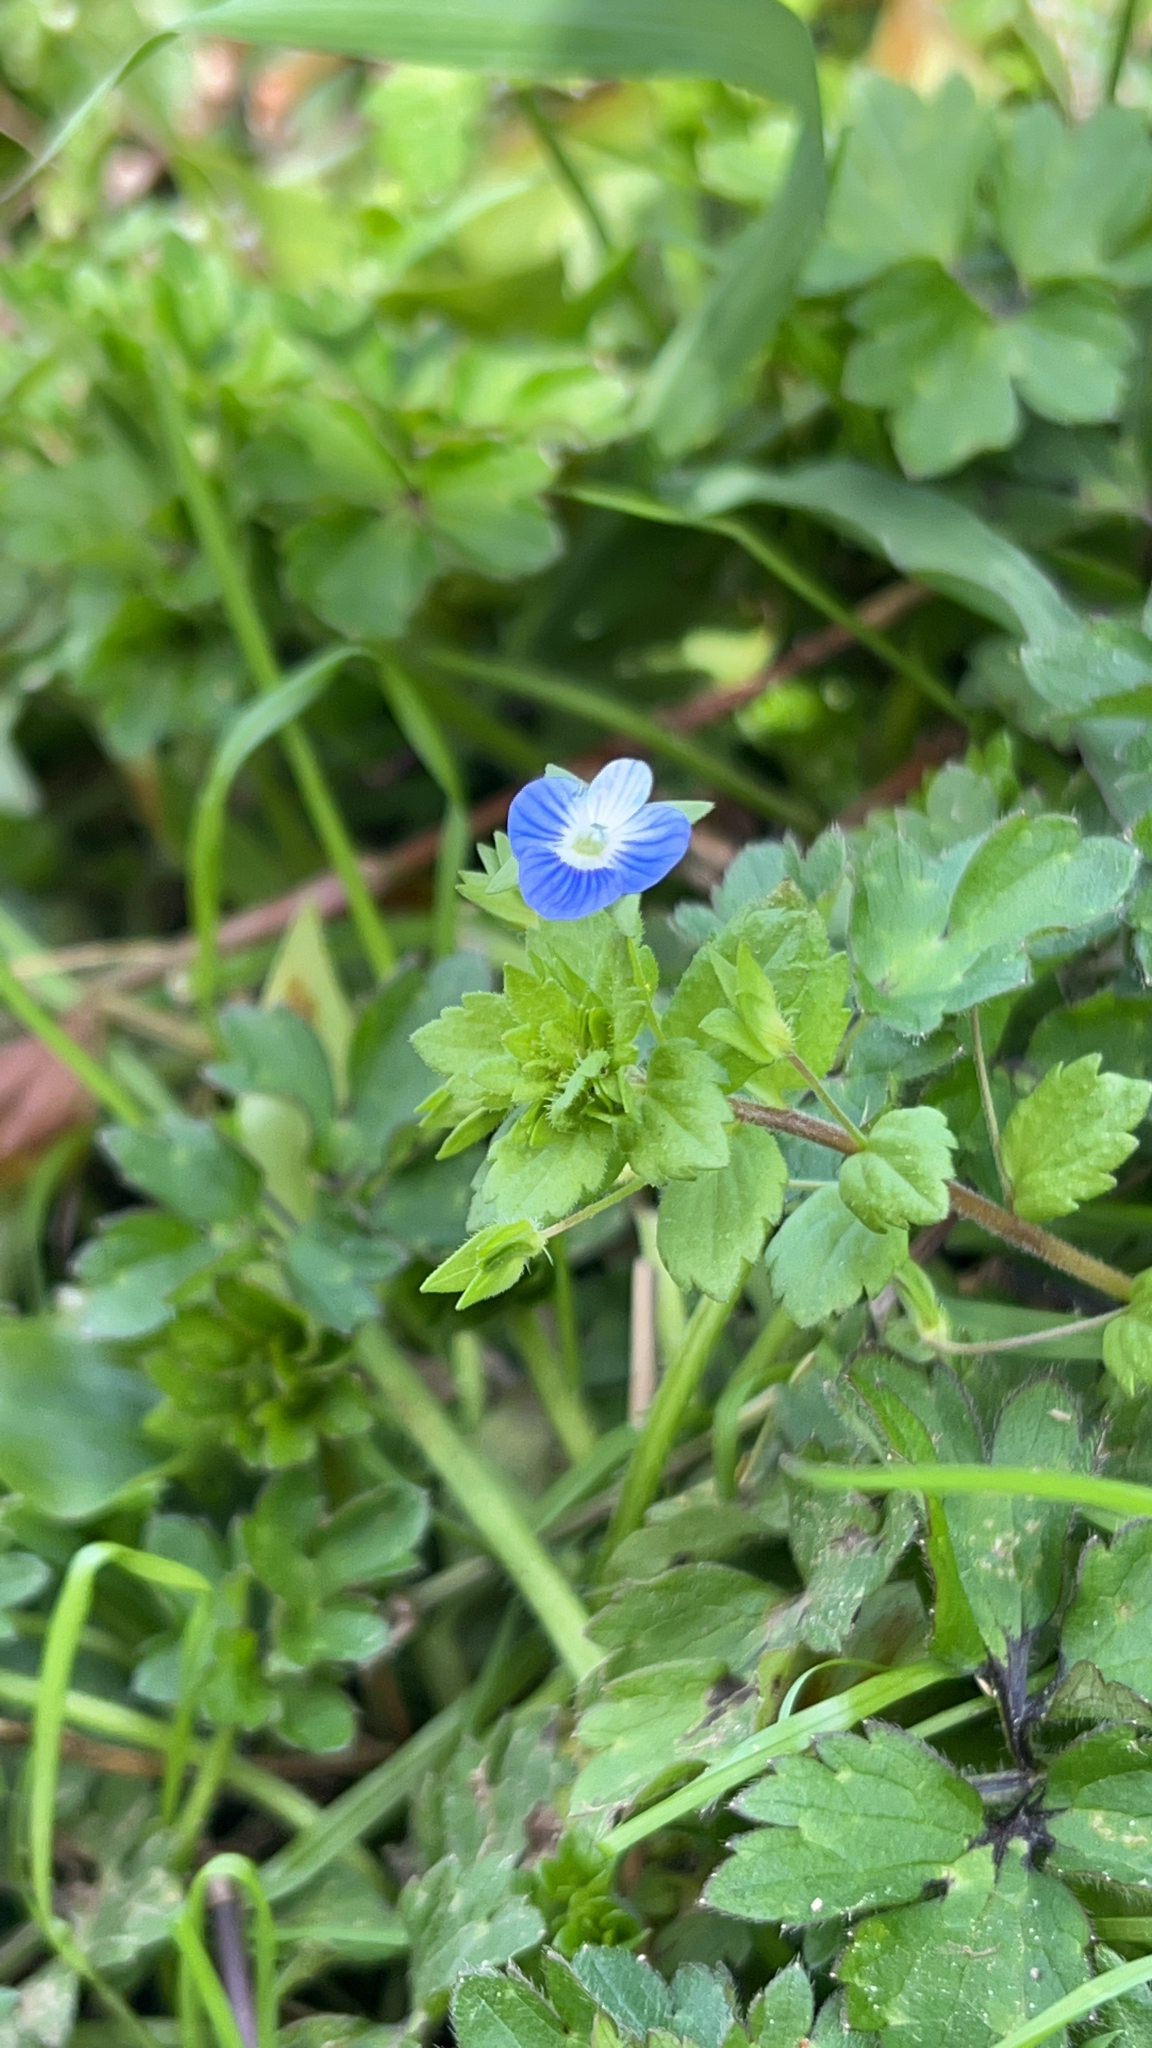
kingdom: Plantae
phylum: Tracheophyta
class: Magnoliopsida
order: Lamiales
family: Plantaginaceae
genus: Veronica
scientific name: Veronica persica
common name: Common field-speedwell
